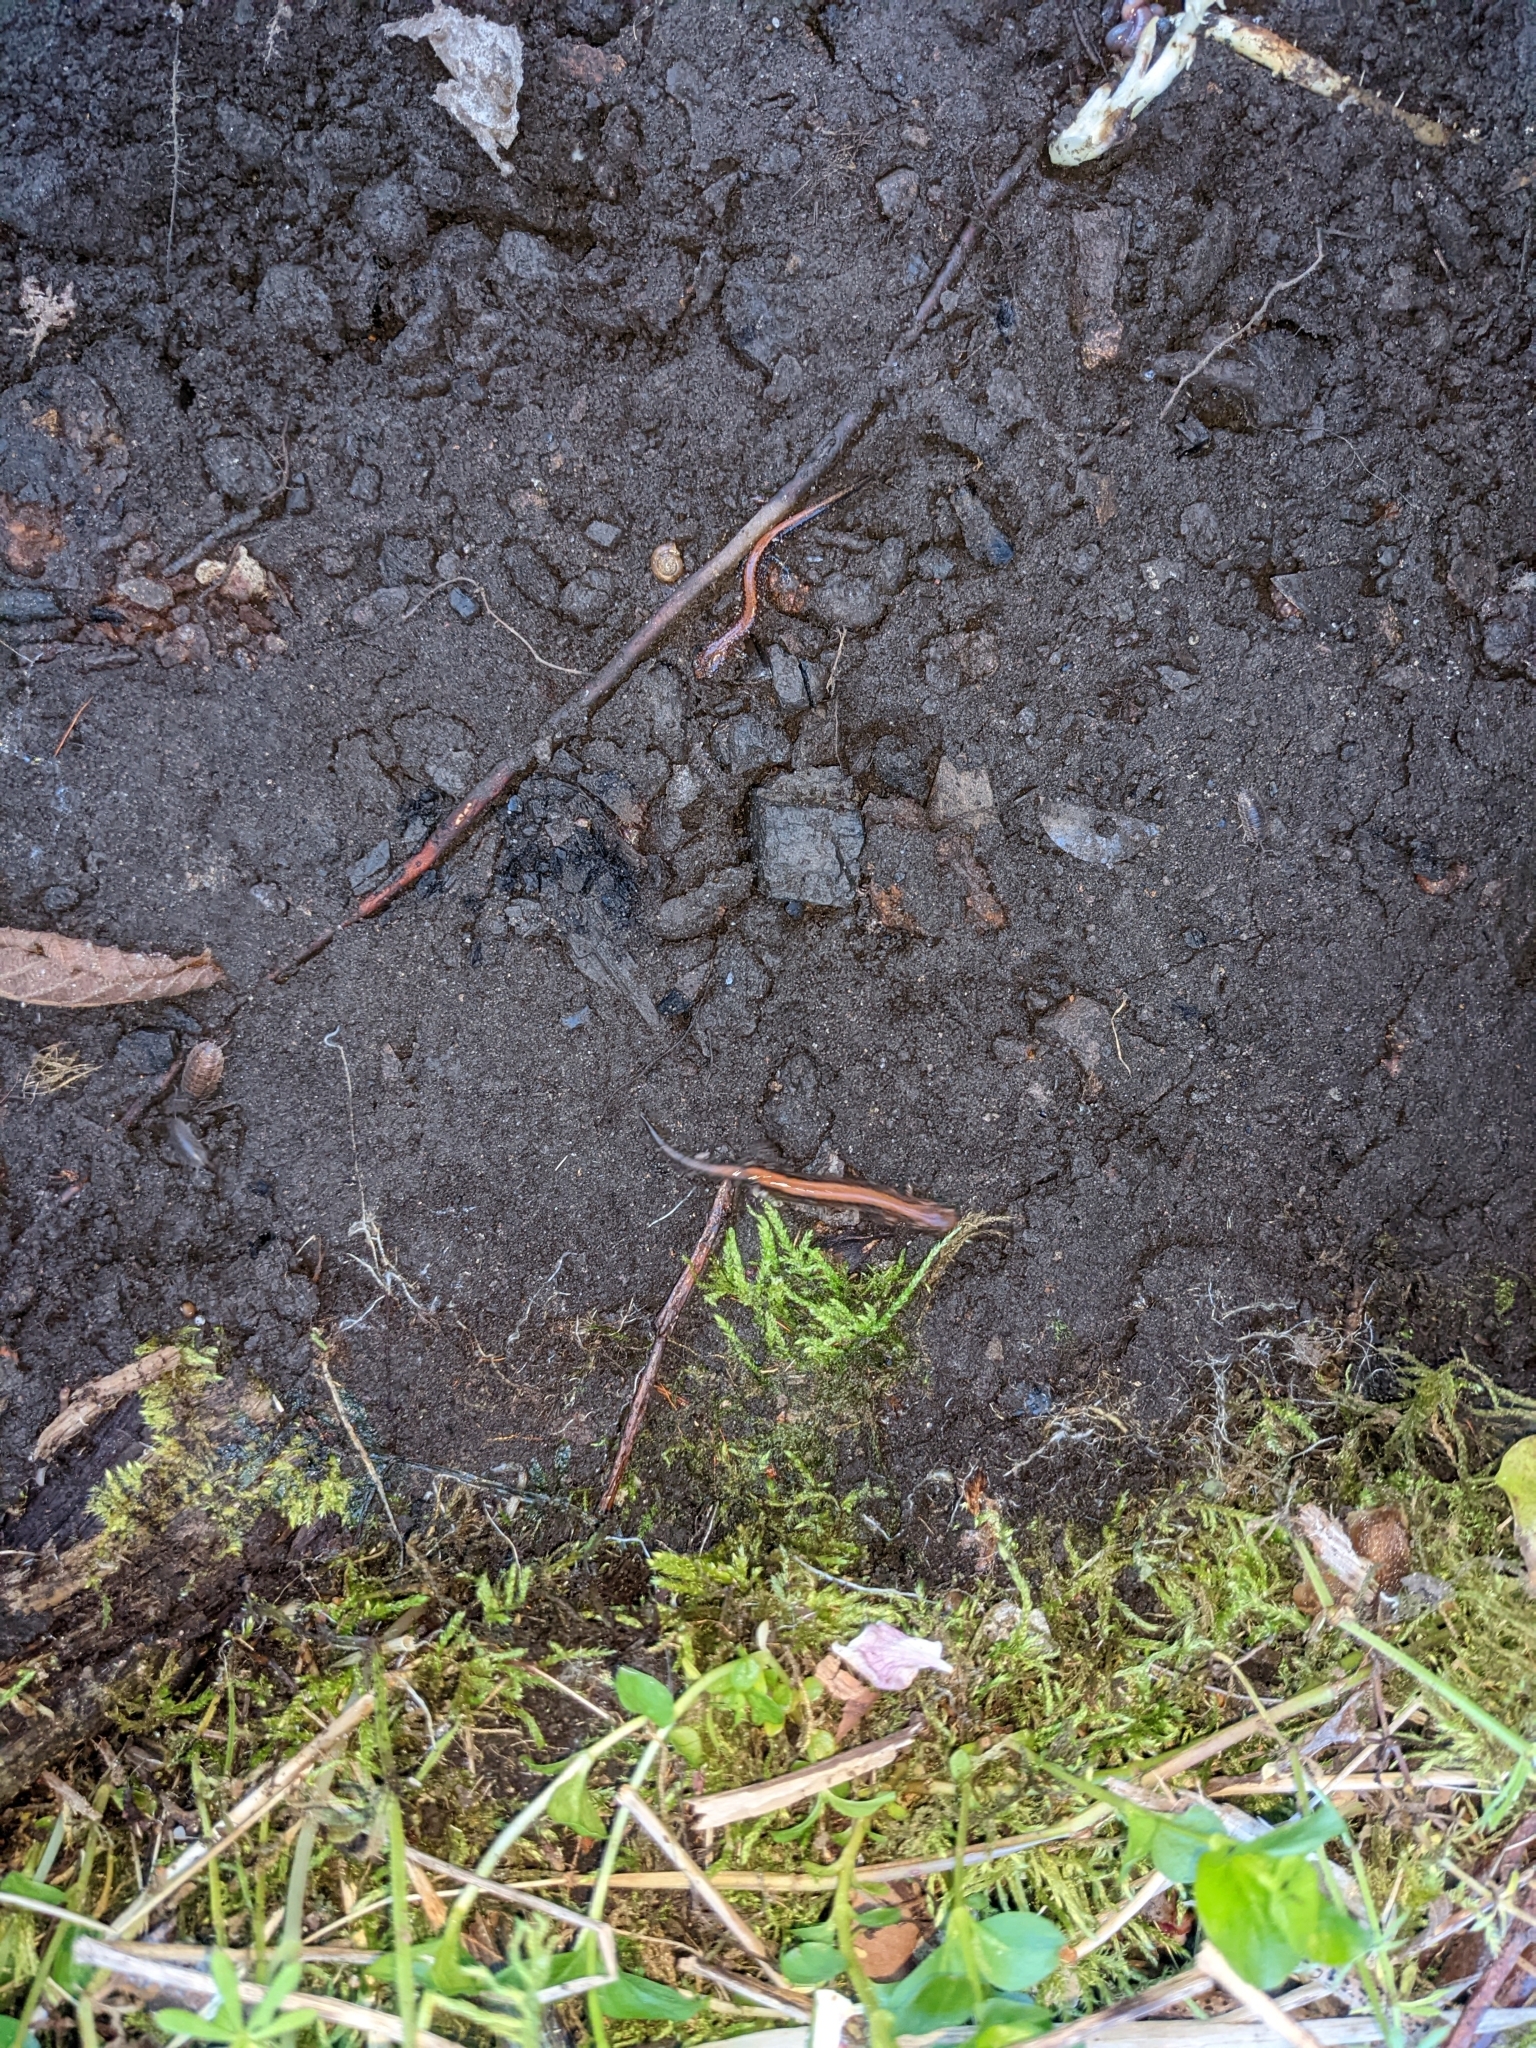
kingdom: Animalia
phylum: Chordata
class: Amphibia
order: Caudata
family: Plethodontidae
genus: Plethodon
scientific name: Plethodon cinereus
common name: Redback salamander
